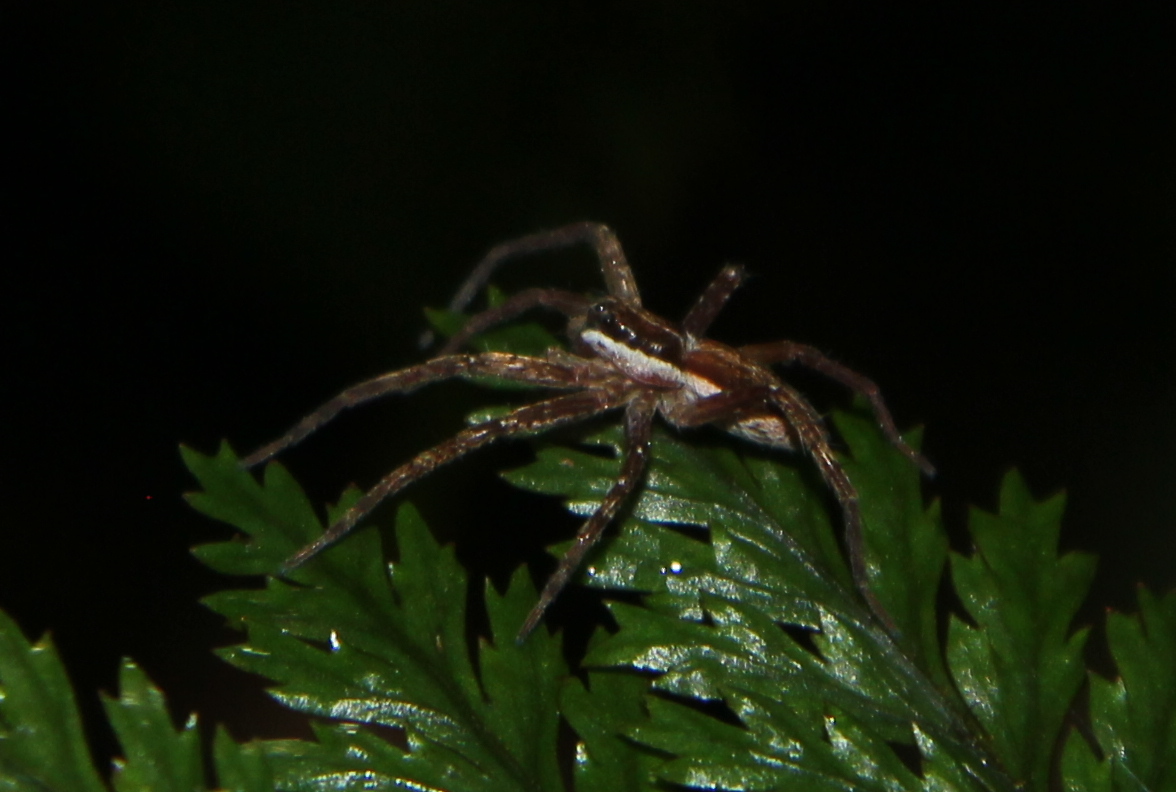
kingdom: Animalia
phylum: Arthropoda
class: Arachnida
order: Araneae
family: Pisauridae
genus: Dolomedes
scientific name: Dolomedes minor
